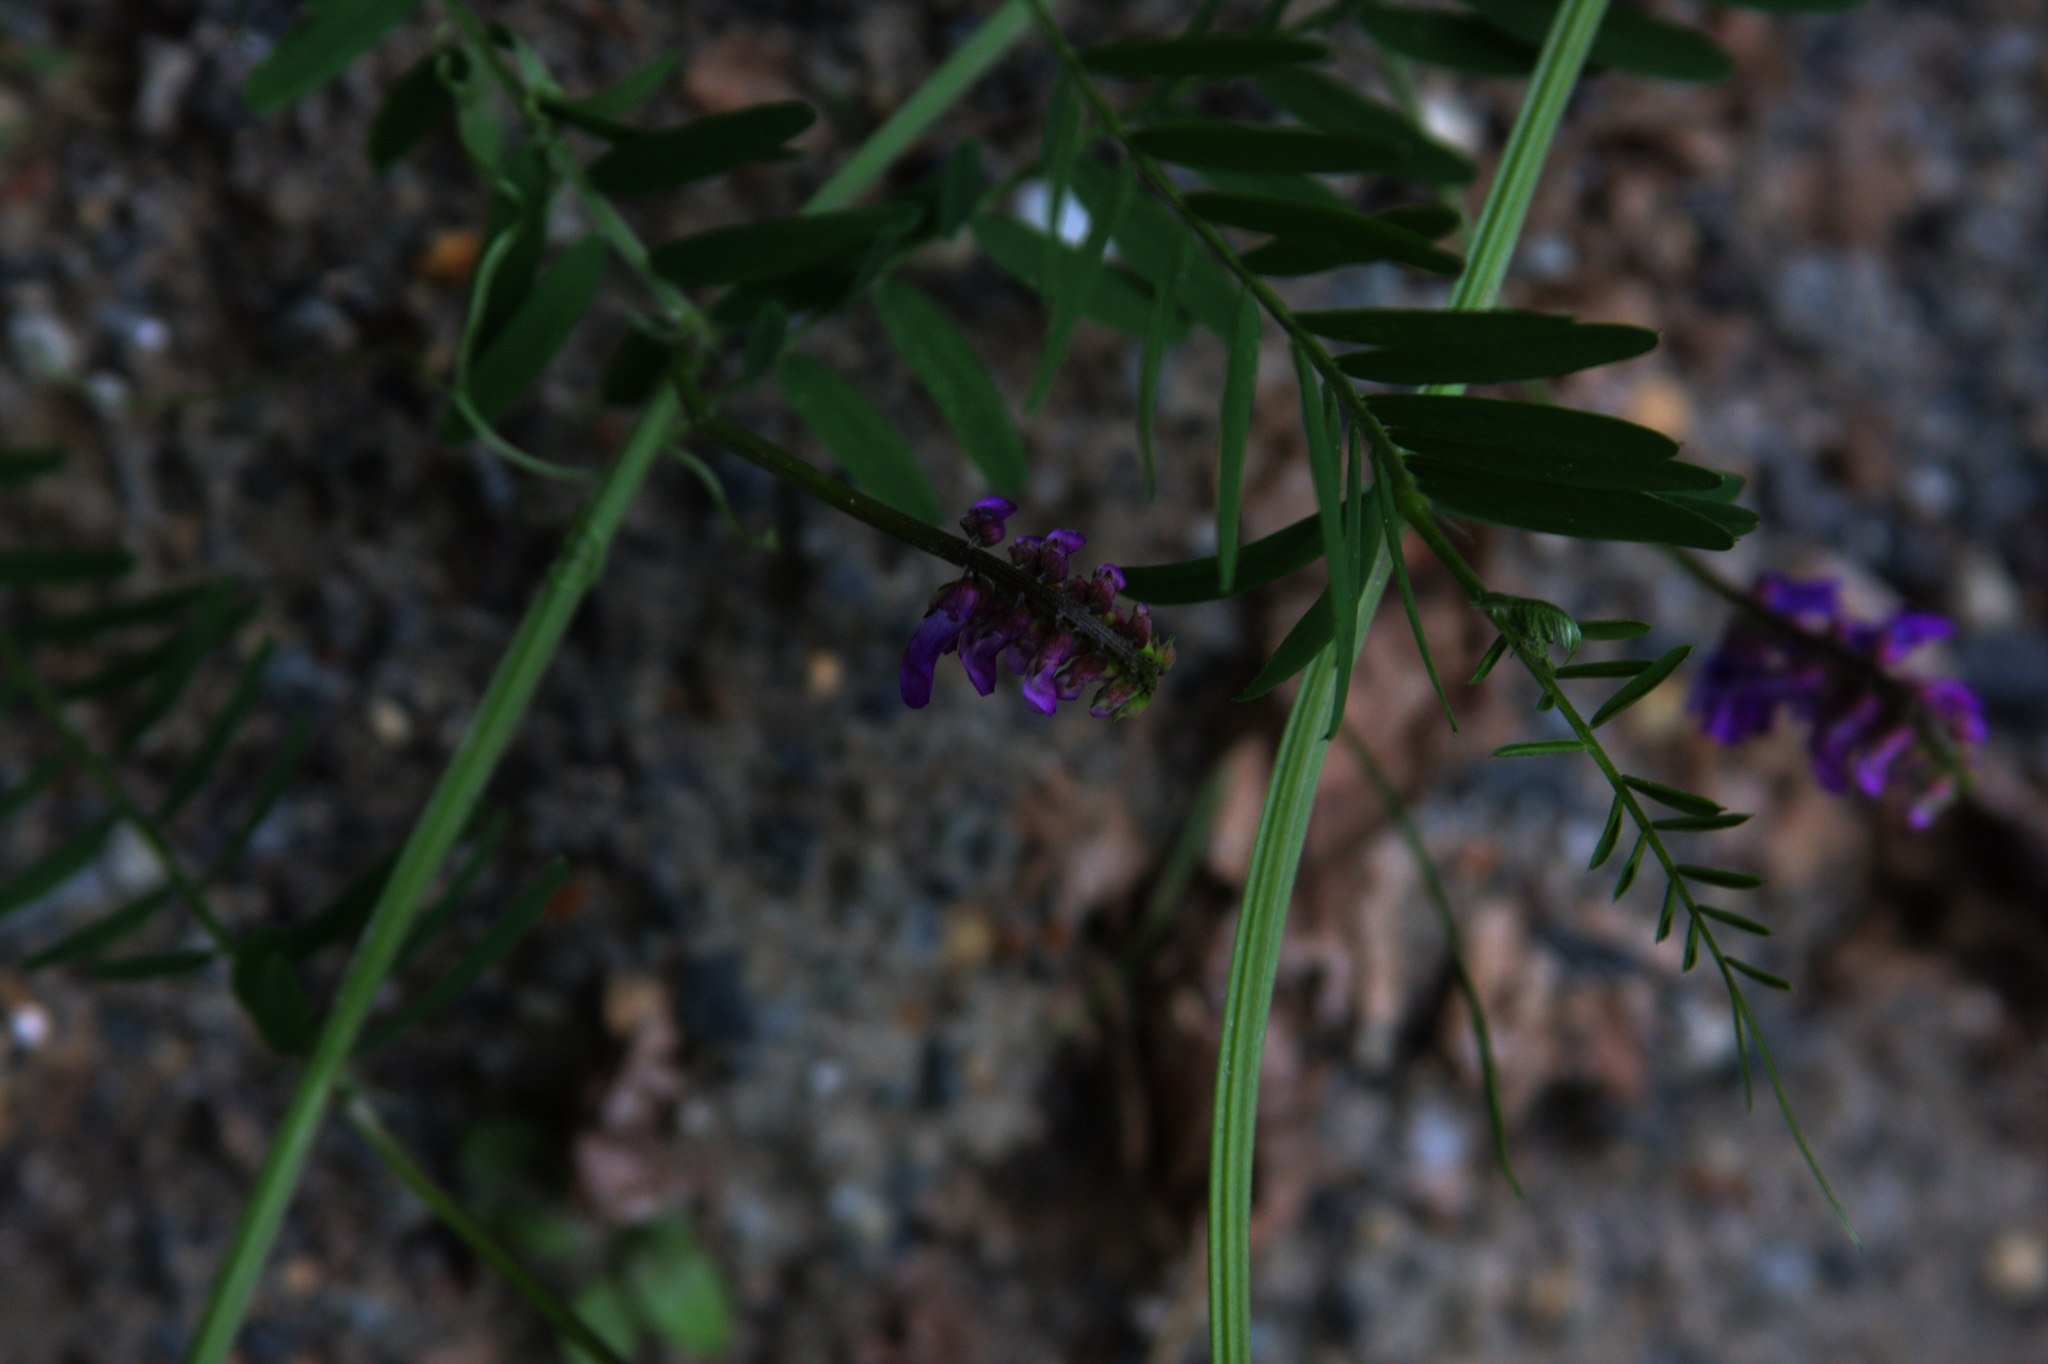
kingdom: Plantae
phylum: Tracheophyta
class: Magnoliopsida
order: Fabales
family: Fabaceae
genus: Vicia
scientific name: Vicia cracca
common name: Bird vetch
